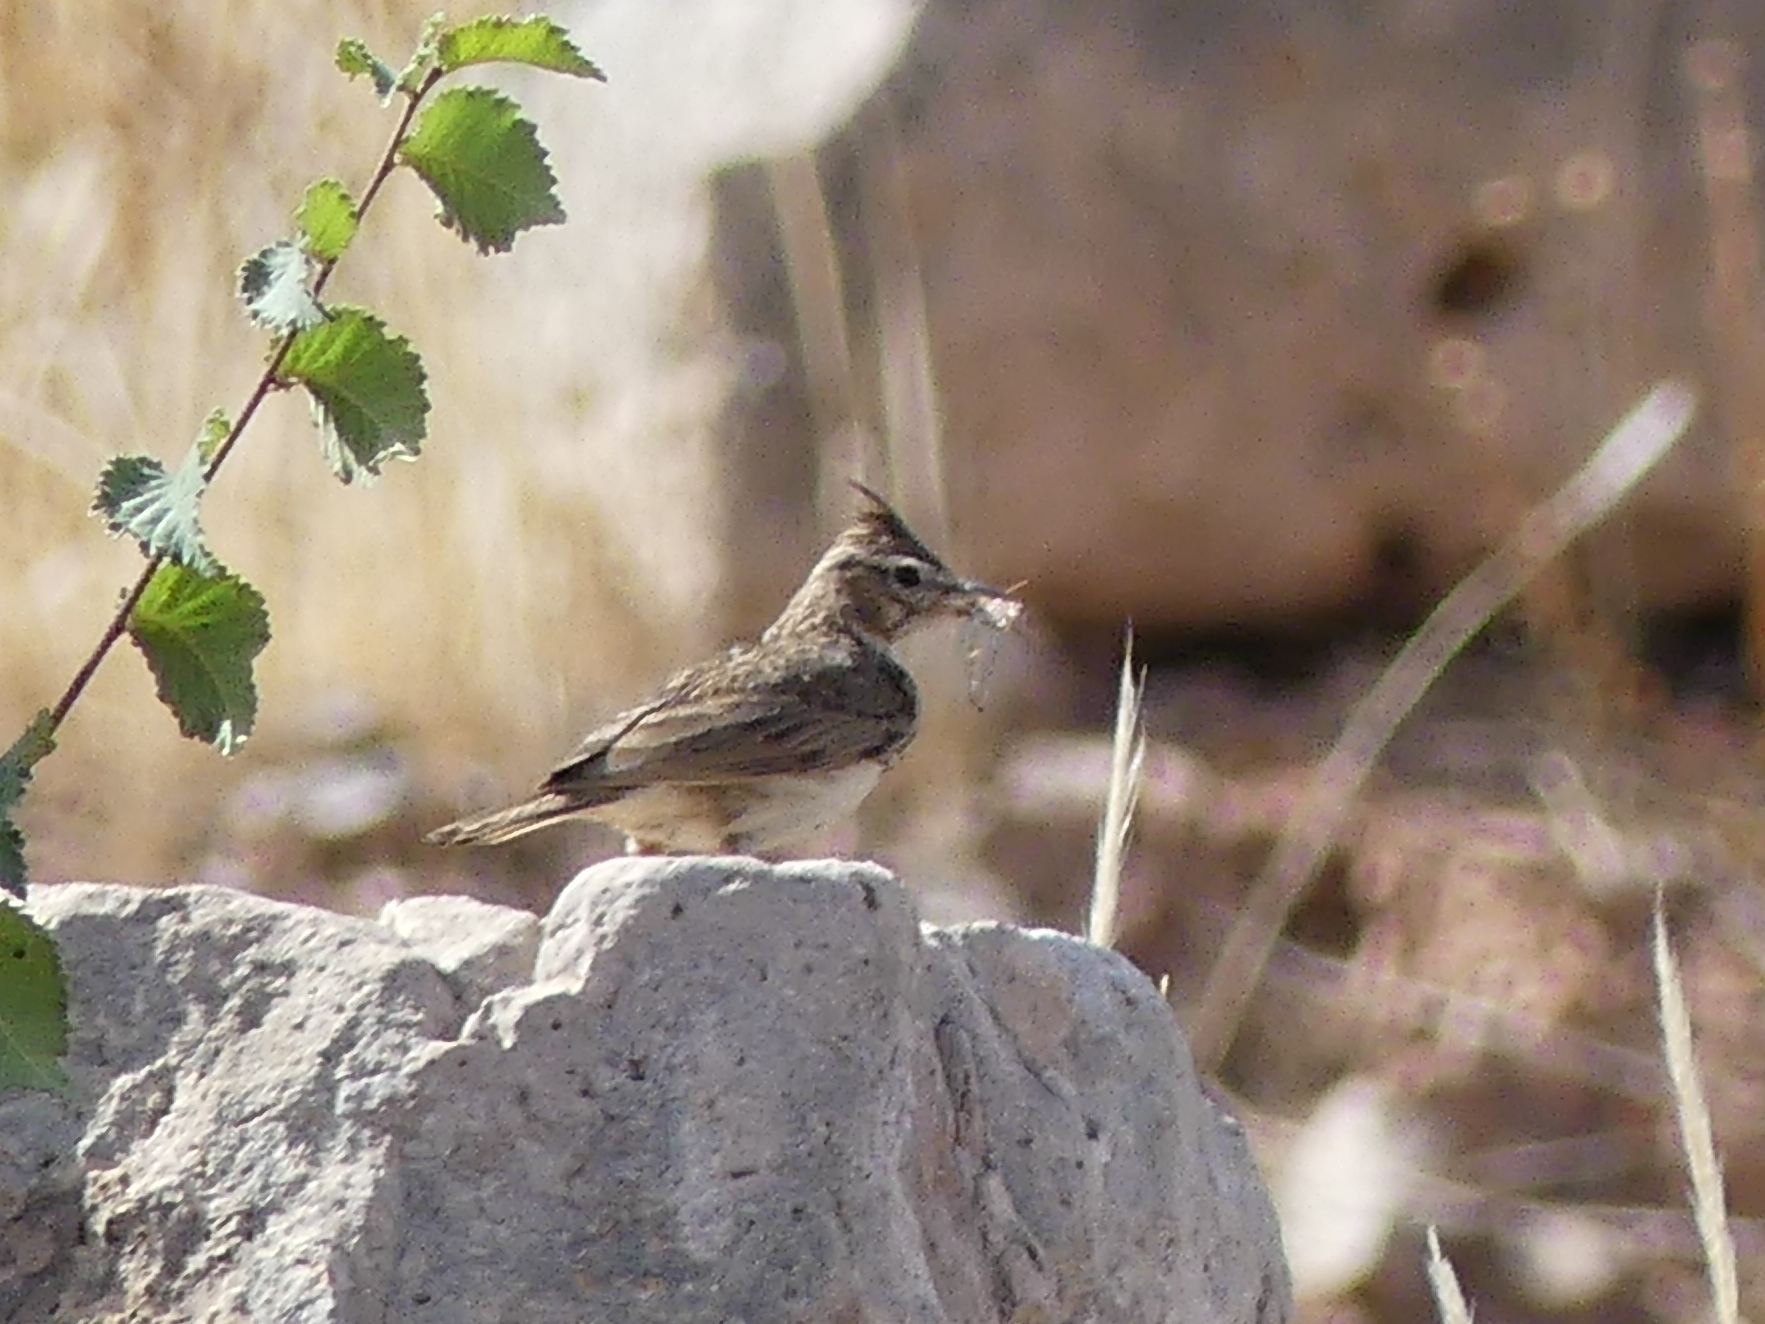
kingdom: Animalia
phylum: Chordata
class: Aves
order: Passeriformes
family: Alaudidae
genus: Galerida
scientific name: Galerida cristata
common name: Crested lark
